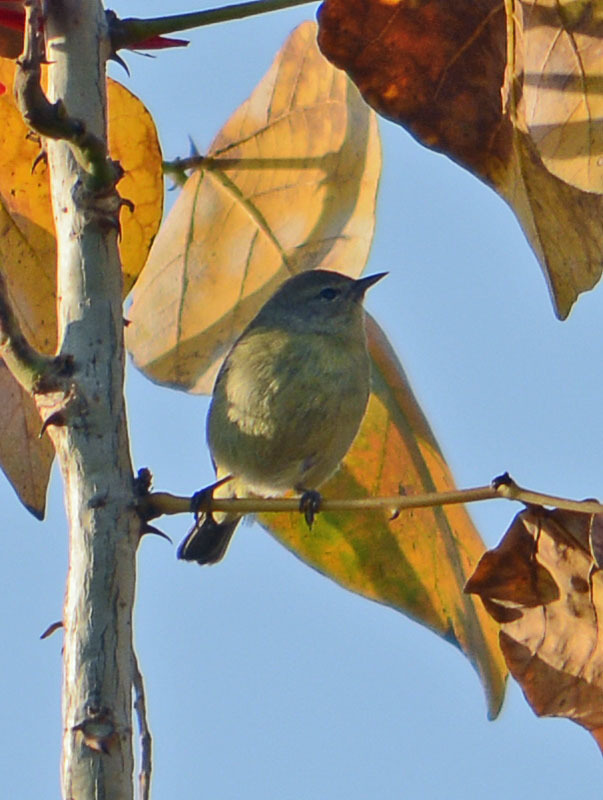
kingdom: Animalia
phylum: Chordata
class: Aves
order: Passeriformes
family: Parulidae
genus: Leiothlypis
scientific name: Leiothlypis celata
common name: Orange-crowned warbler
